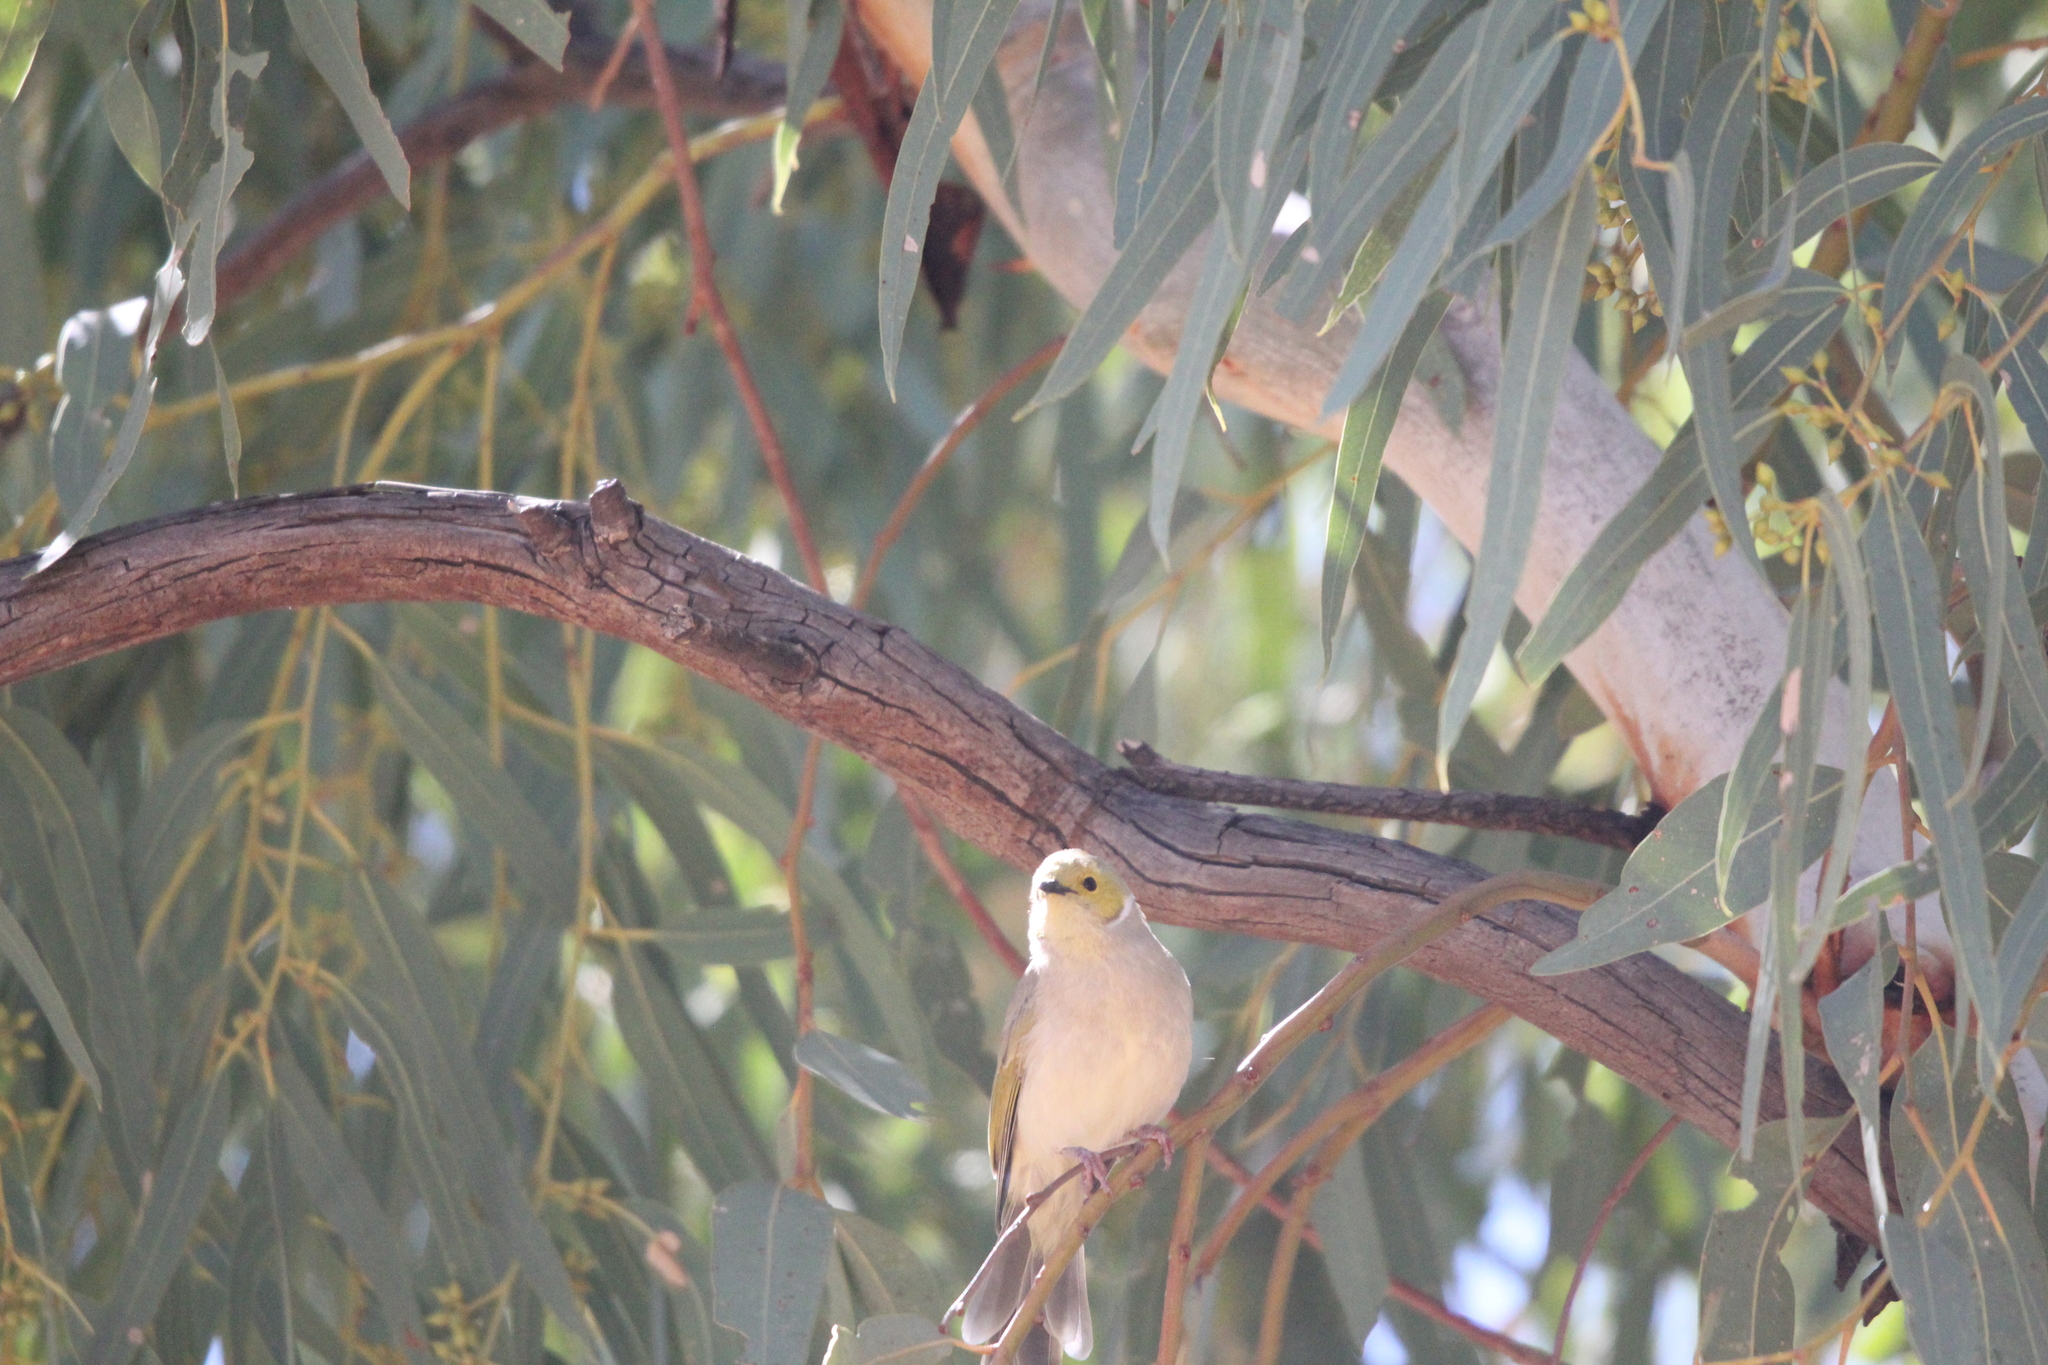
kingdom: Animalia
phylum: Chordata
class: Aves
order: Passeriformes
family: Meliphagidae
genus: Ptilotula
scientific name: Ptilotula penicillata
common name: White-plumed honeyeater
